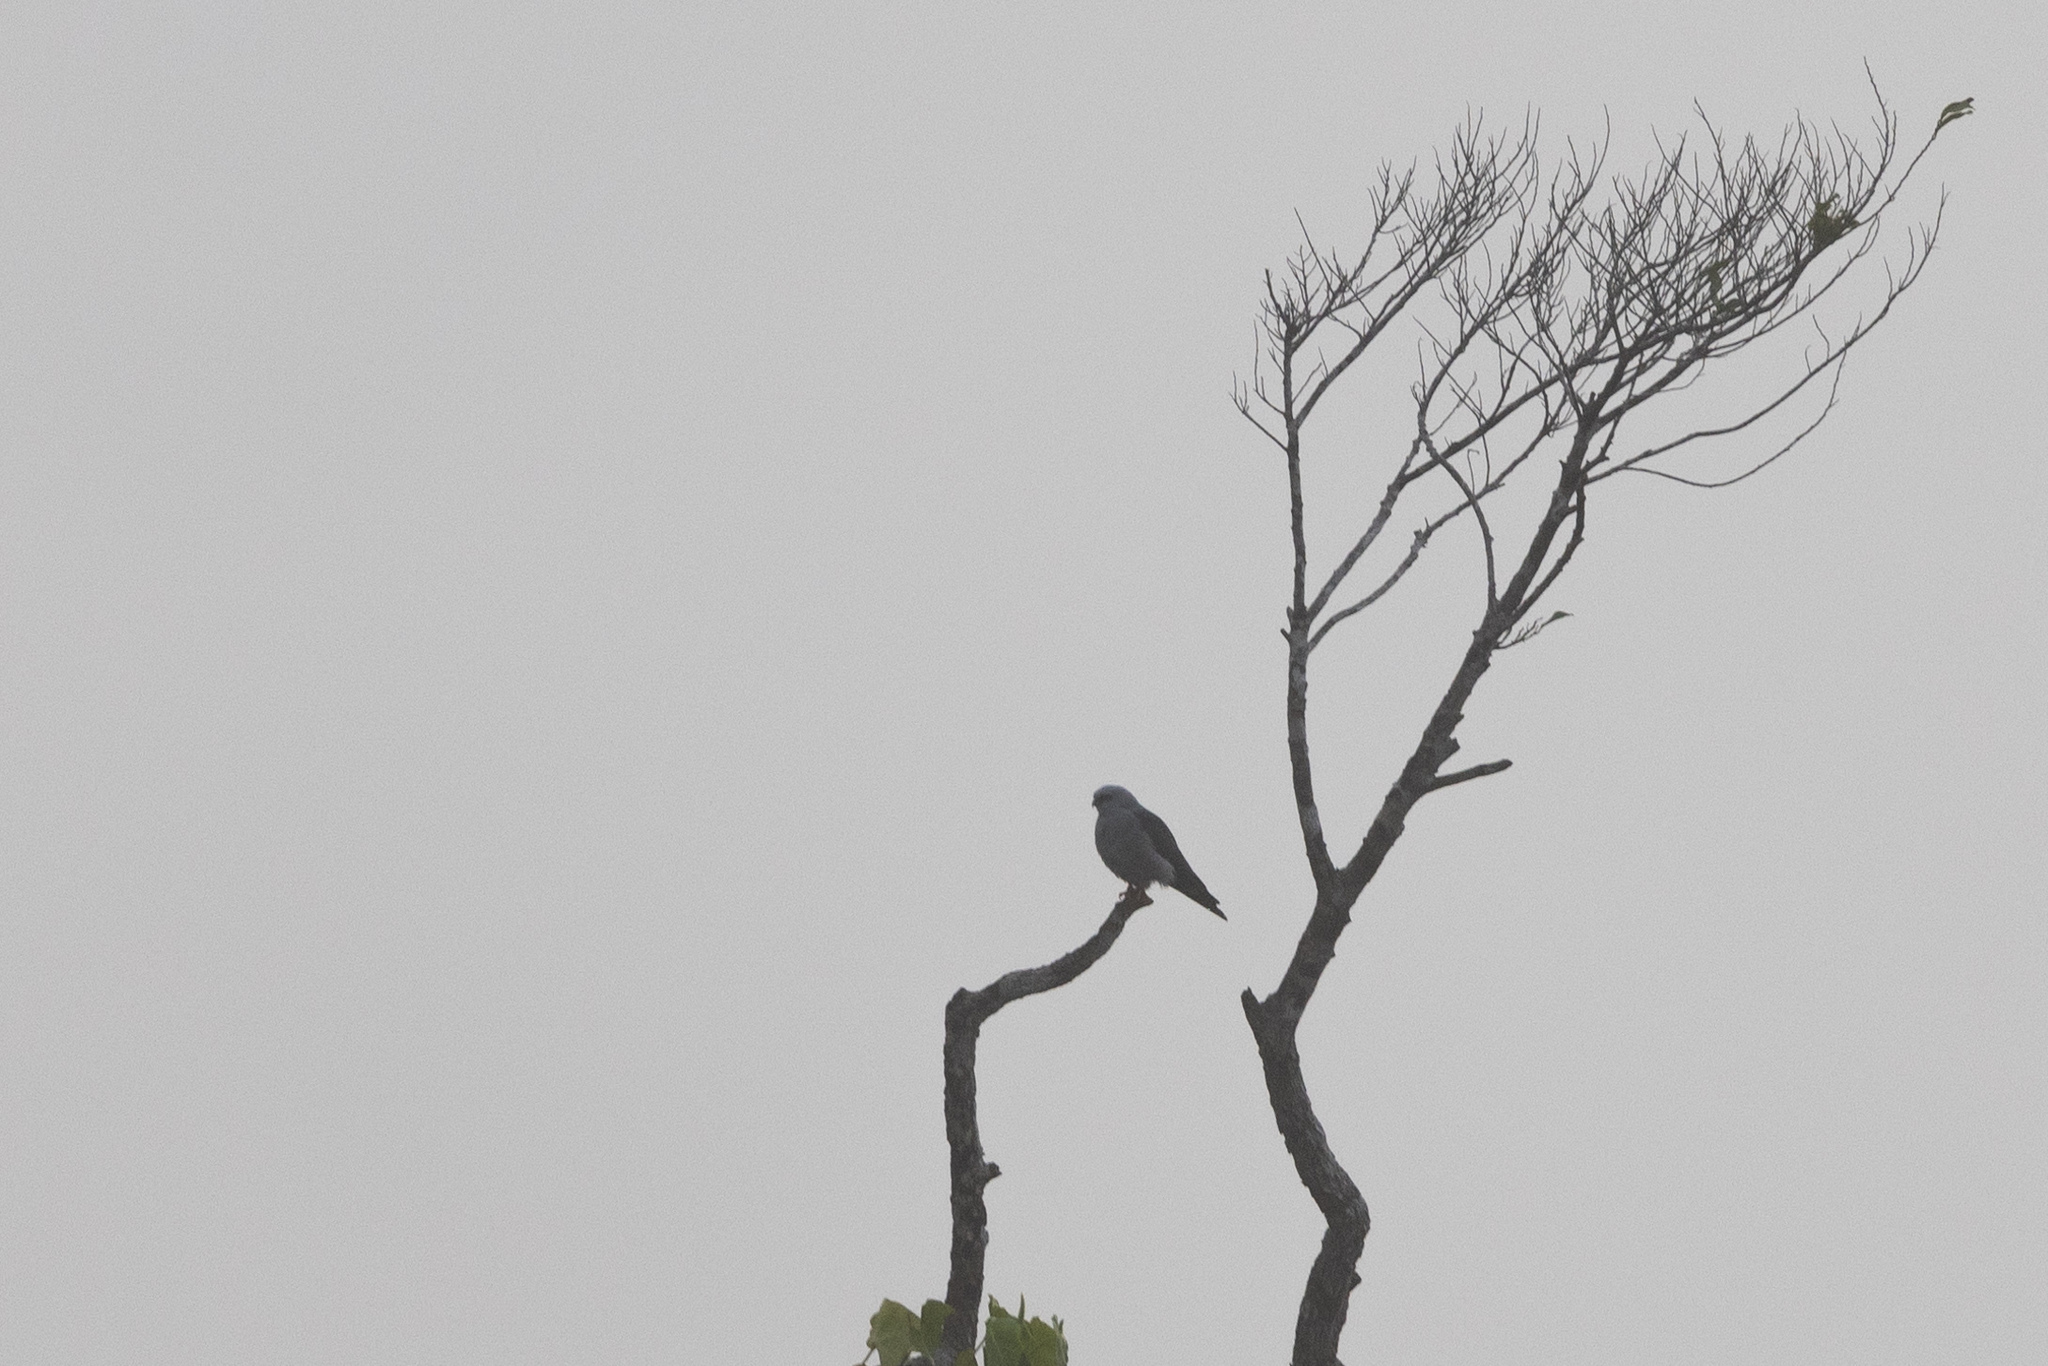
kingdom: Animalia
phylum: Chordata
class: Aves
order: Accipitriformes
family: Accipitridae
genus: Ictinia
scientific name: Ictinia plumbea
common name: Plumbeous kite
